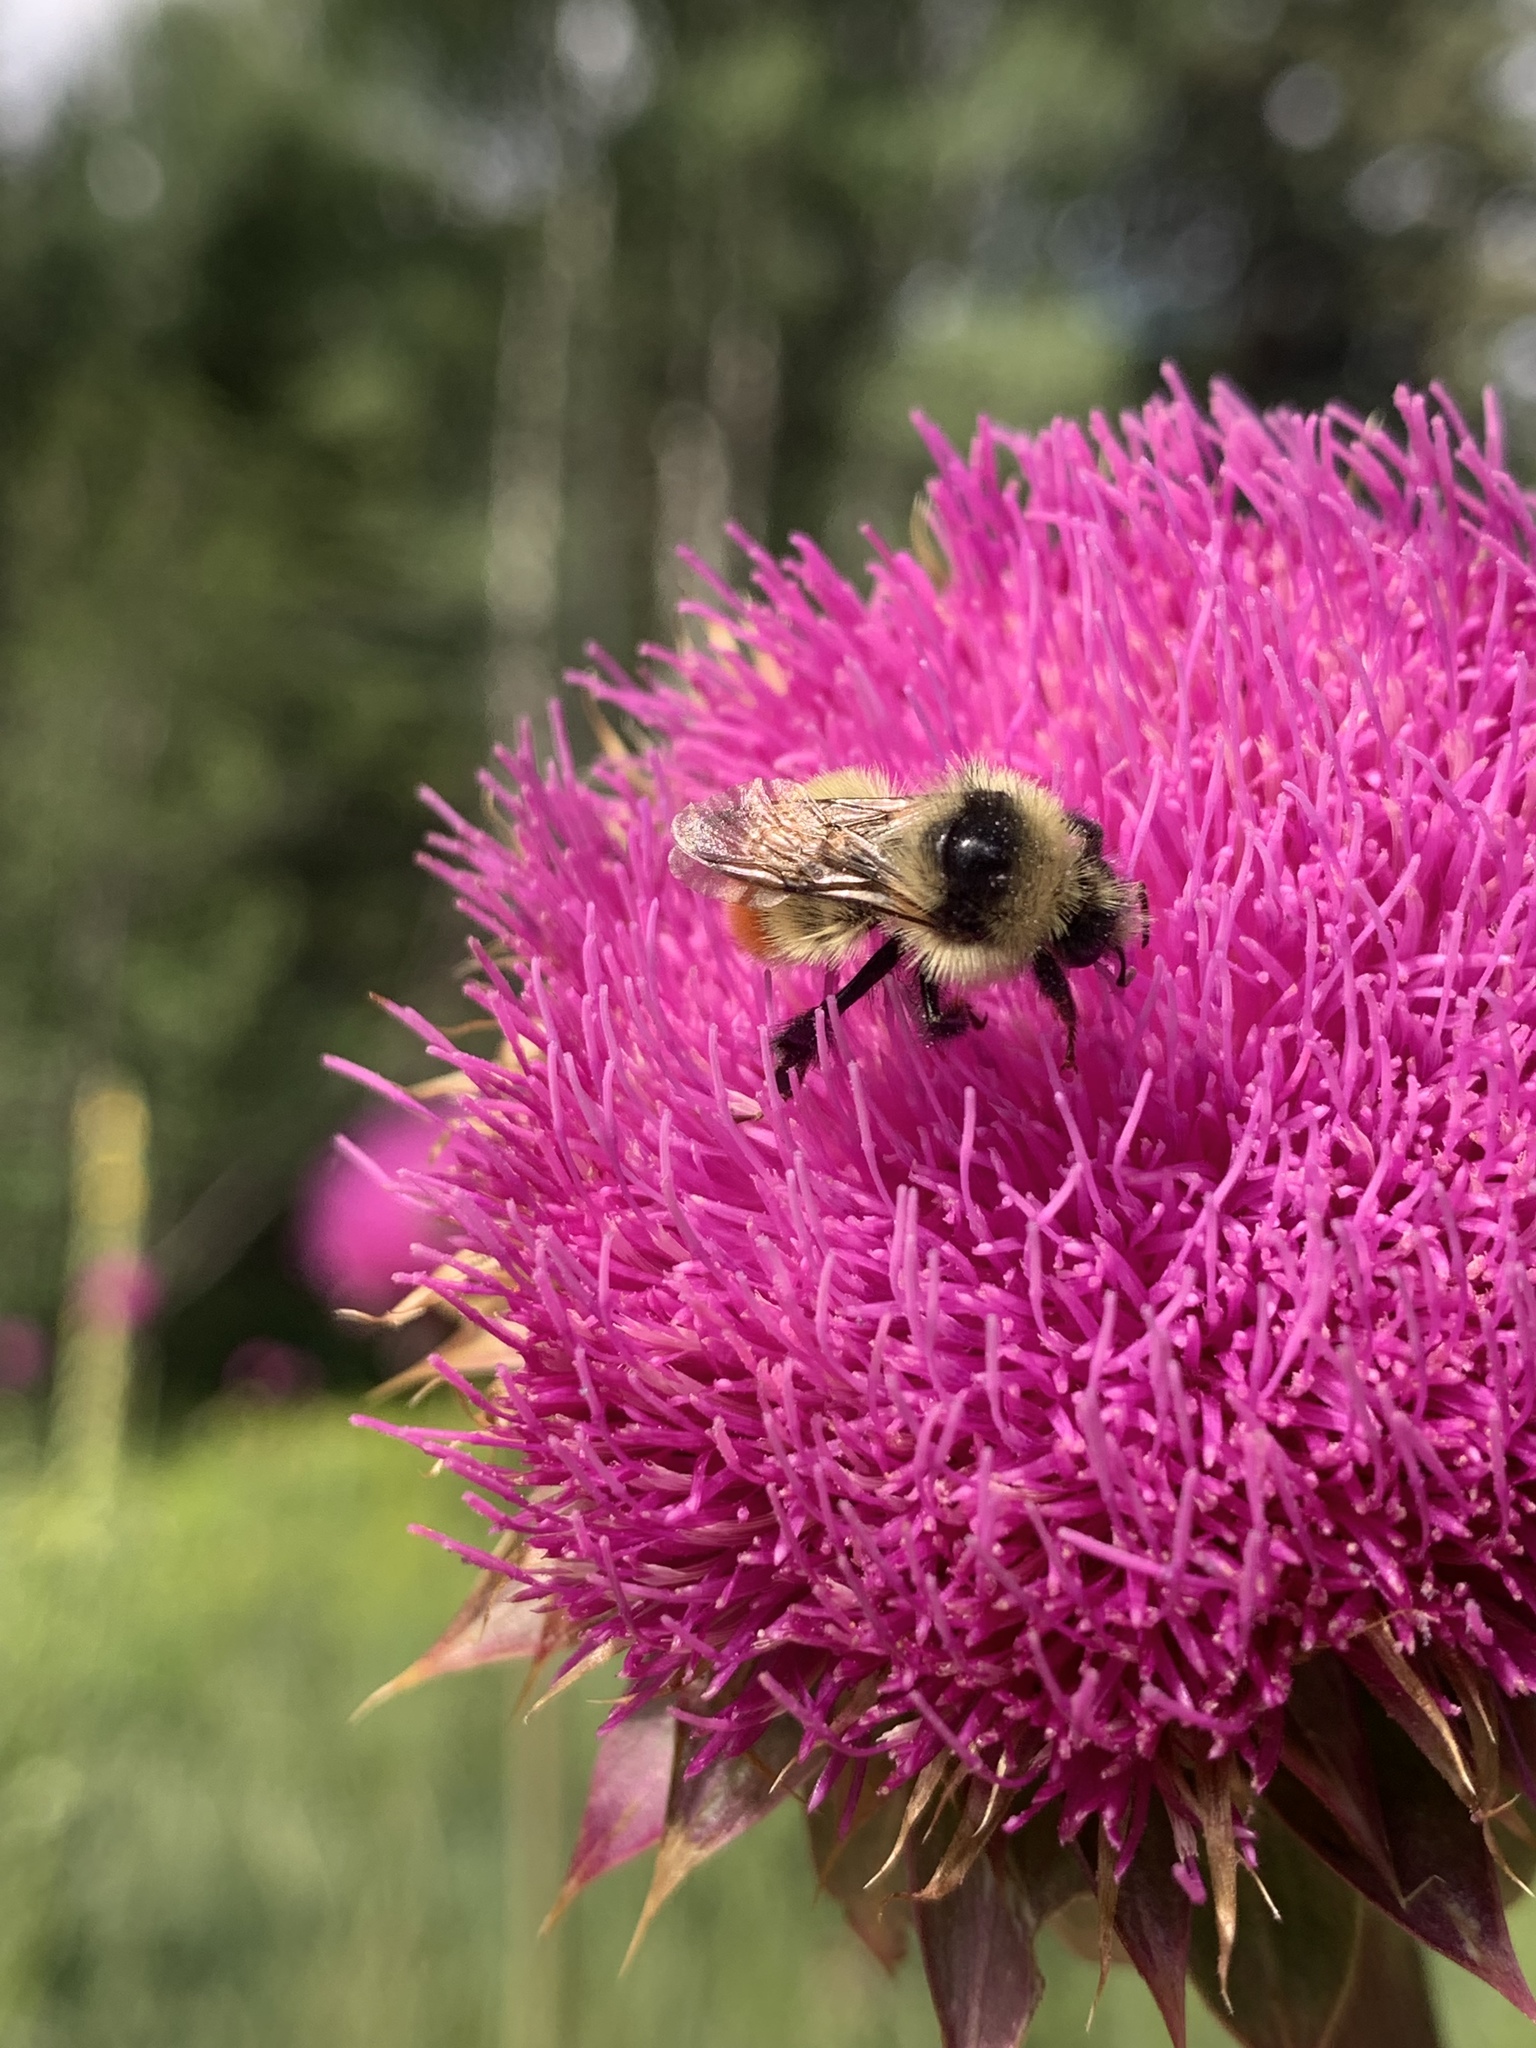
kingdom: Animalia
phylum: Arthropoda
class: Insecta
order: Hymenoptera
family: Apidae
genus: Pyrobombus
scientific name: Pyrobombus
